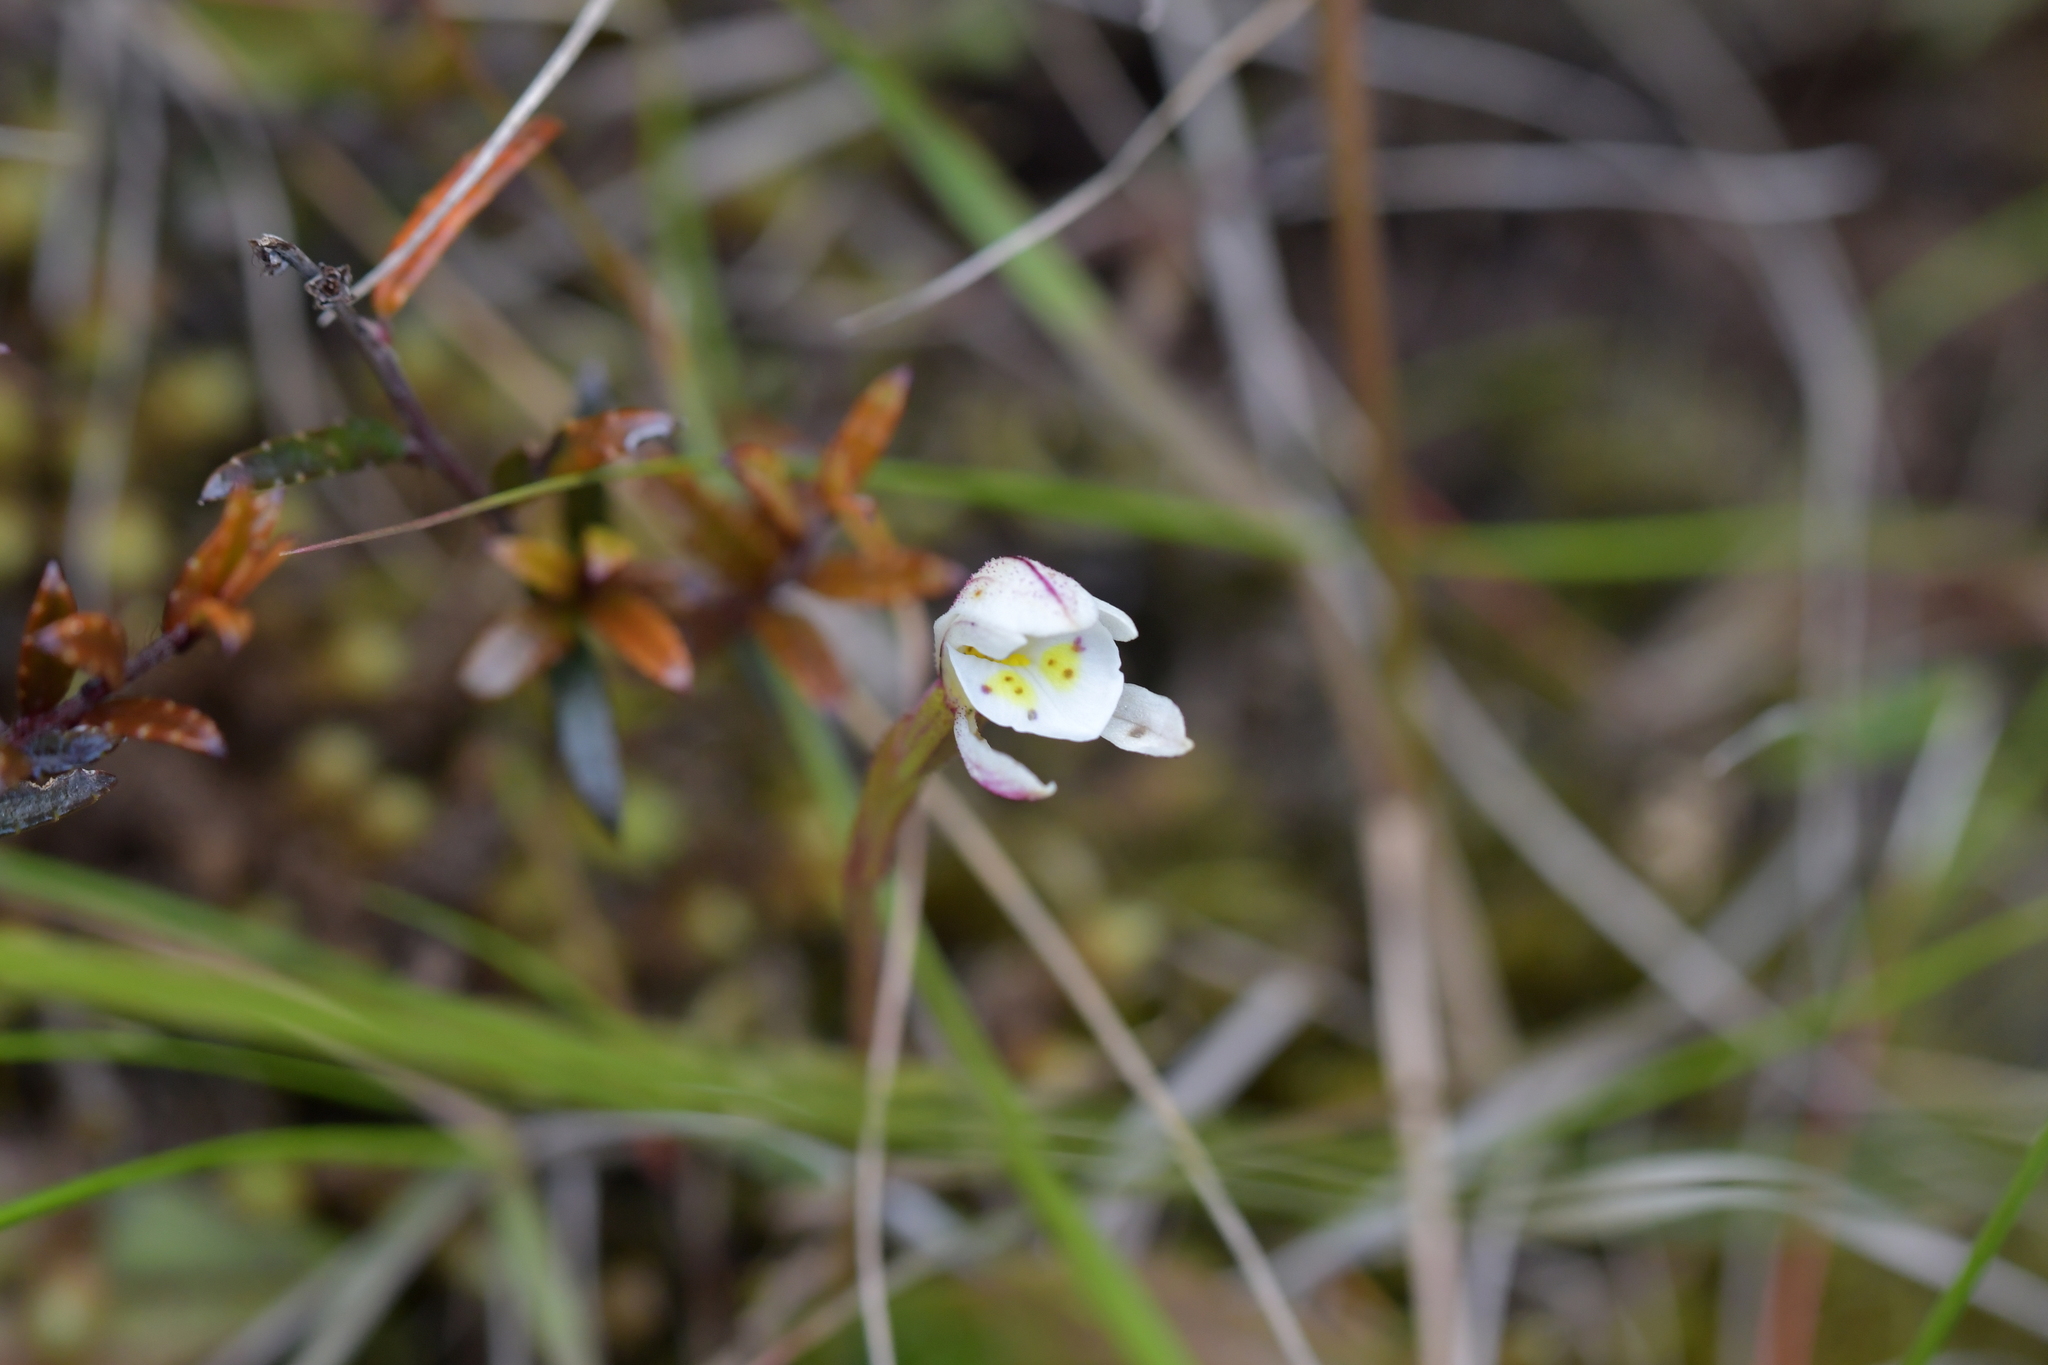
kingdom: Plantae
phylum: Tracheophyta
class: Liliopsida
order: Asparagales
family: Orchidaceae
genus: Aporostylis
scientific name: Aporostylis bifolia
